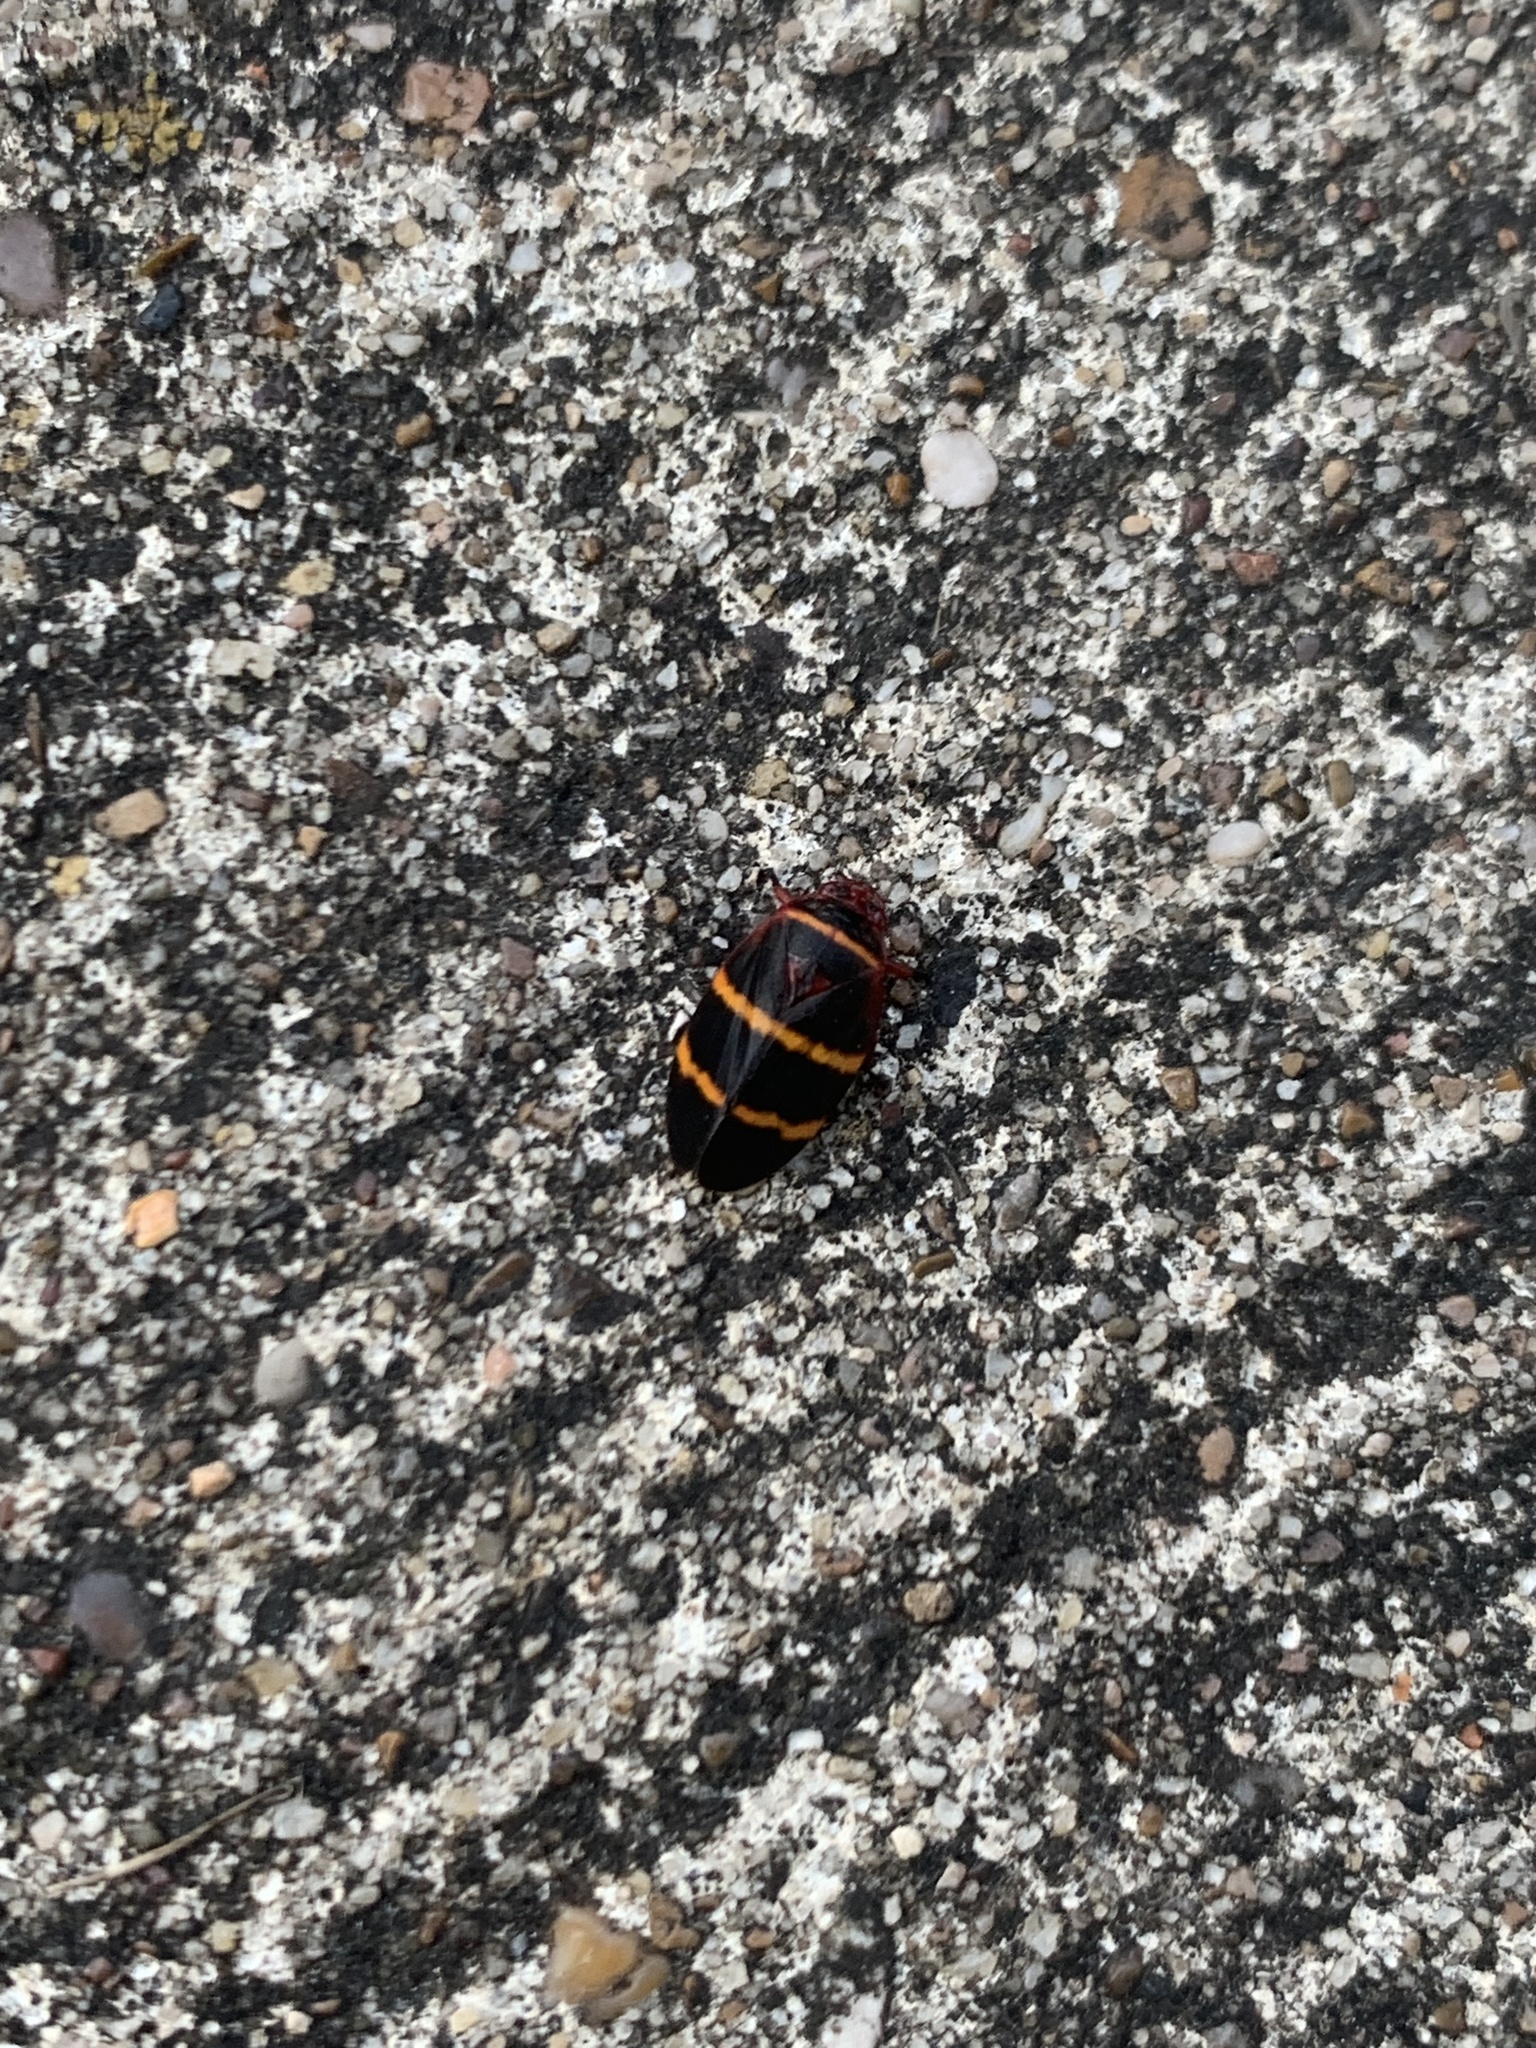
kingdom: Animalia
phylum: Arthropoda
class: Insecta
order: Hemiptera
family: Cercopidae
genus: Prosapia
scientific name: Prosapia bicincta
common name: Twolined spittlebug
